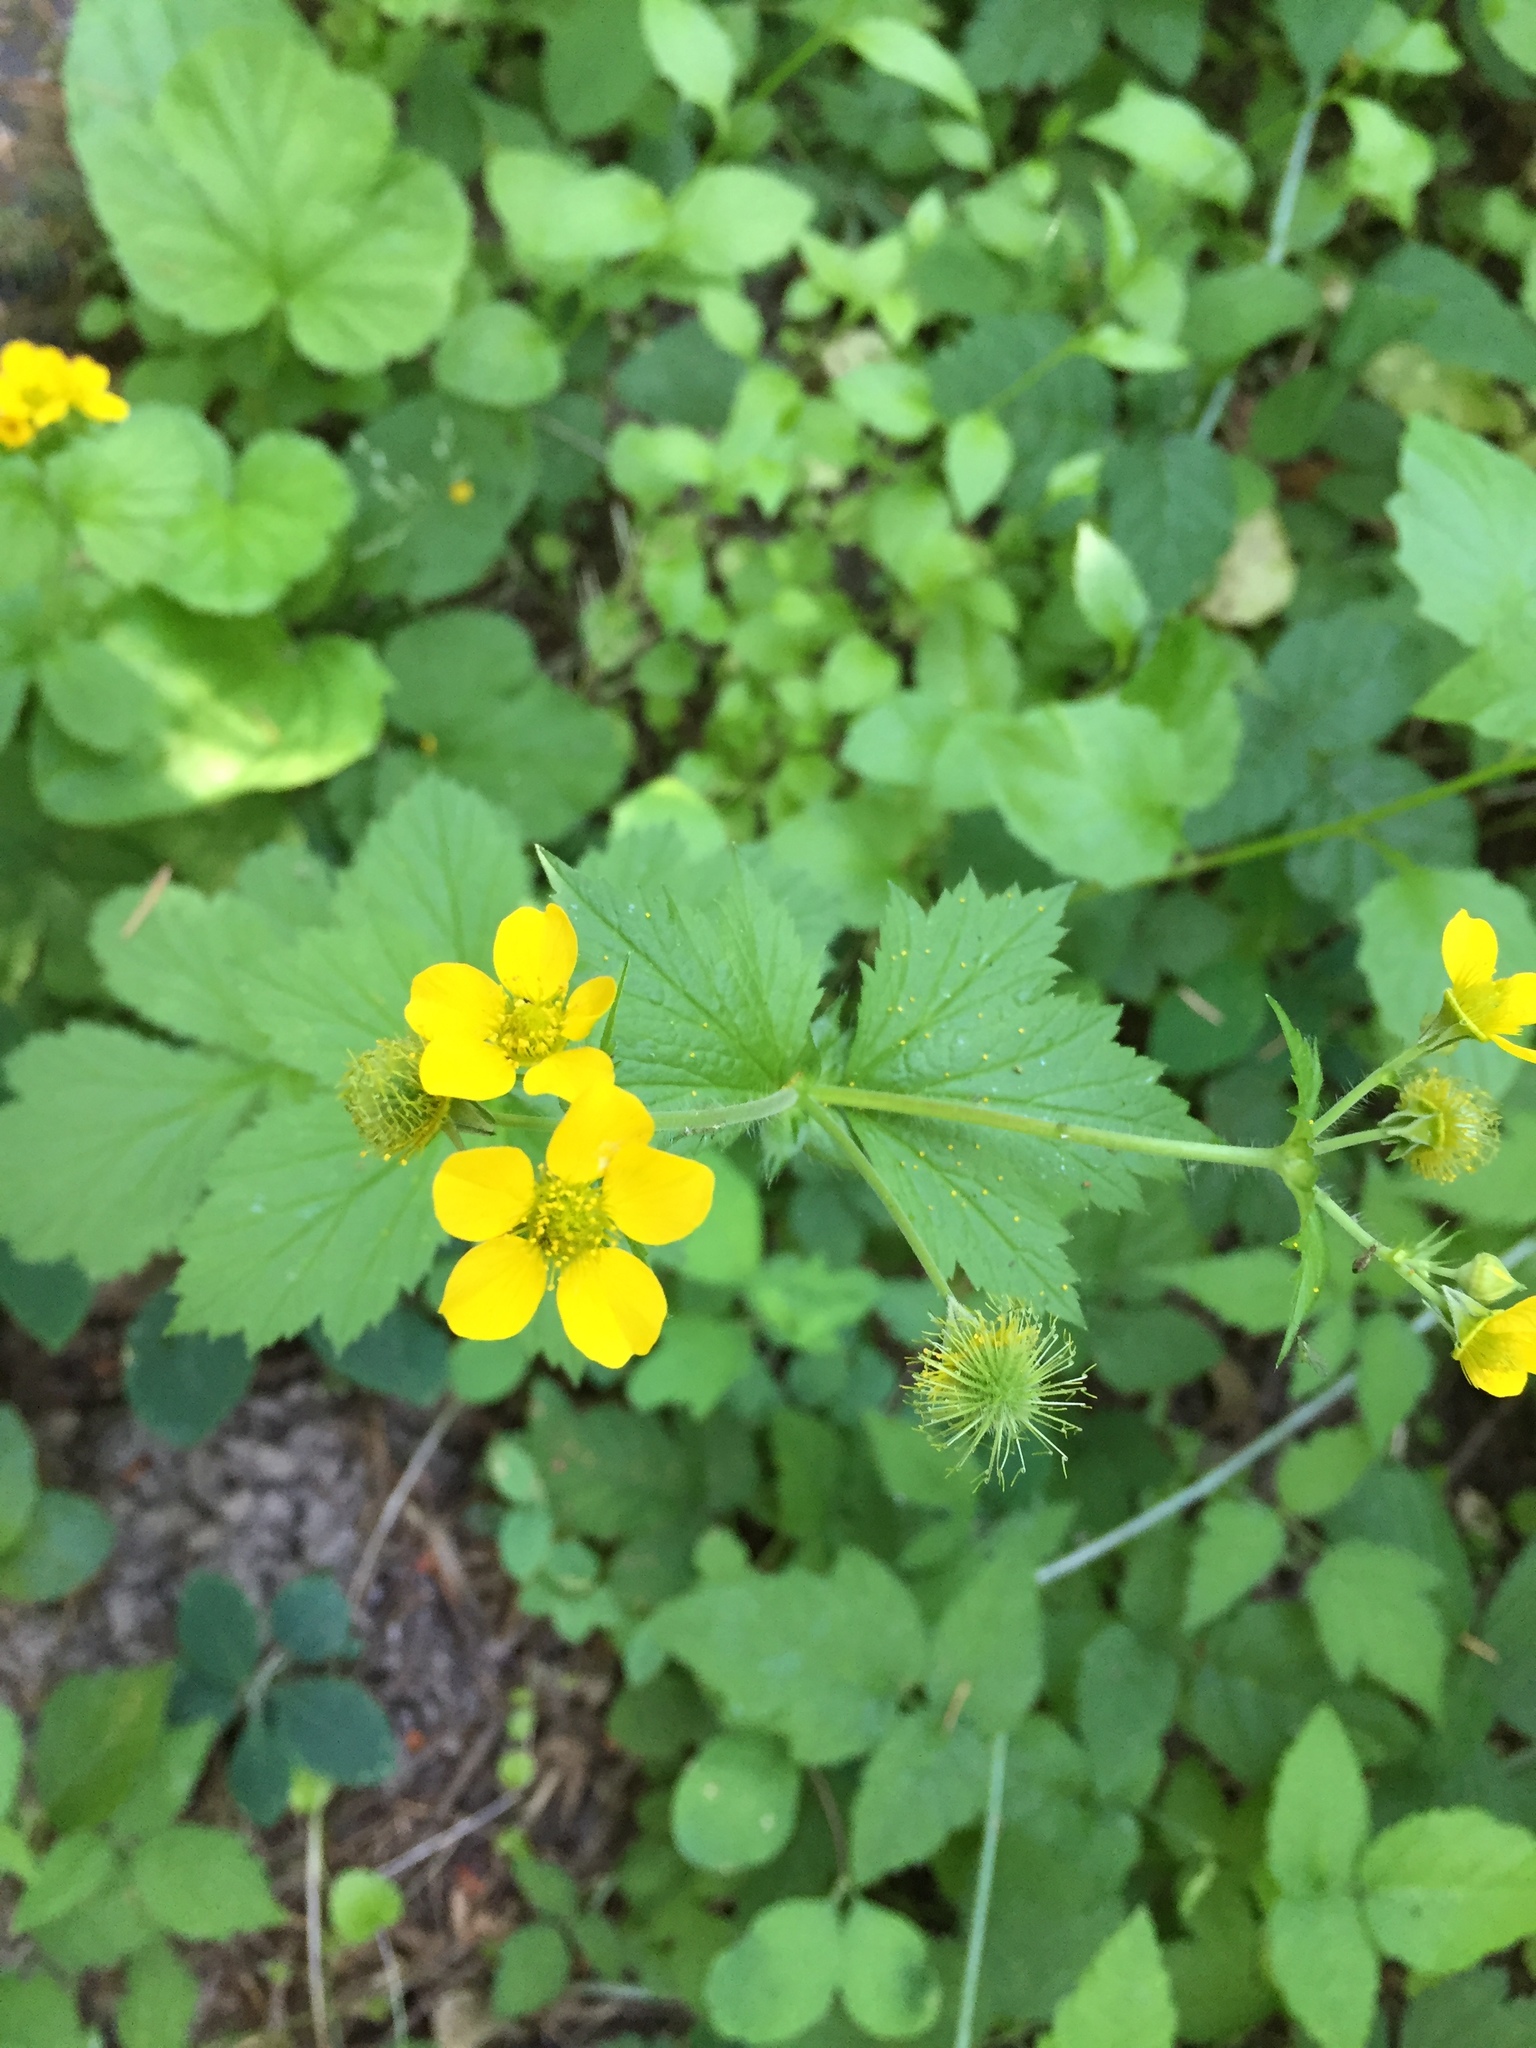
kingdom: Plantae
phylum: Tracheophyta
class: Magnoliopsida
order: Rosales
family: Rosaceae
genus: Geum
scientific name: Geum macrophyllum
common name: Large-leaved avens
